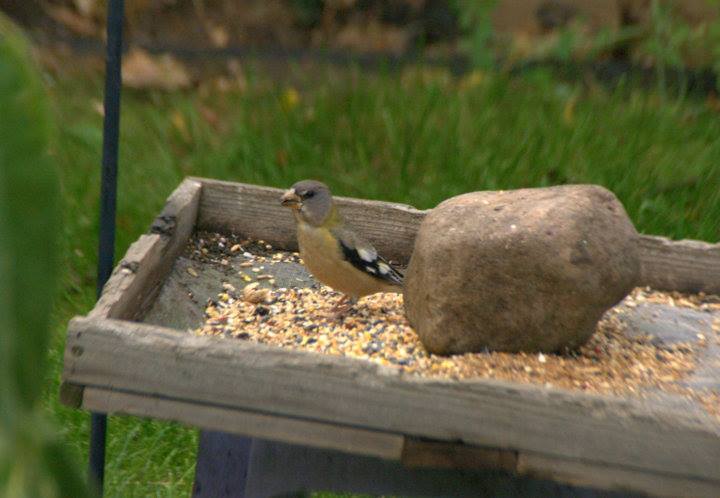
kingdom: Animalia
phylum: Chordata
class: Aves
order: Passeriformes
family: Fringillidae
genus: Hesperiphona
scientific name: Hesperiphona vespertina
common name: Evening grosbeak
